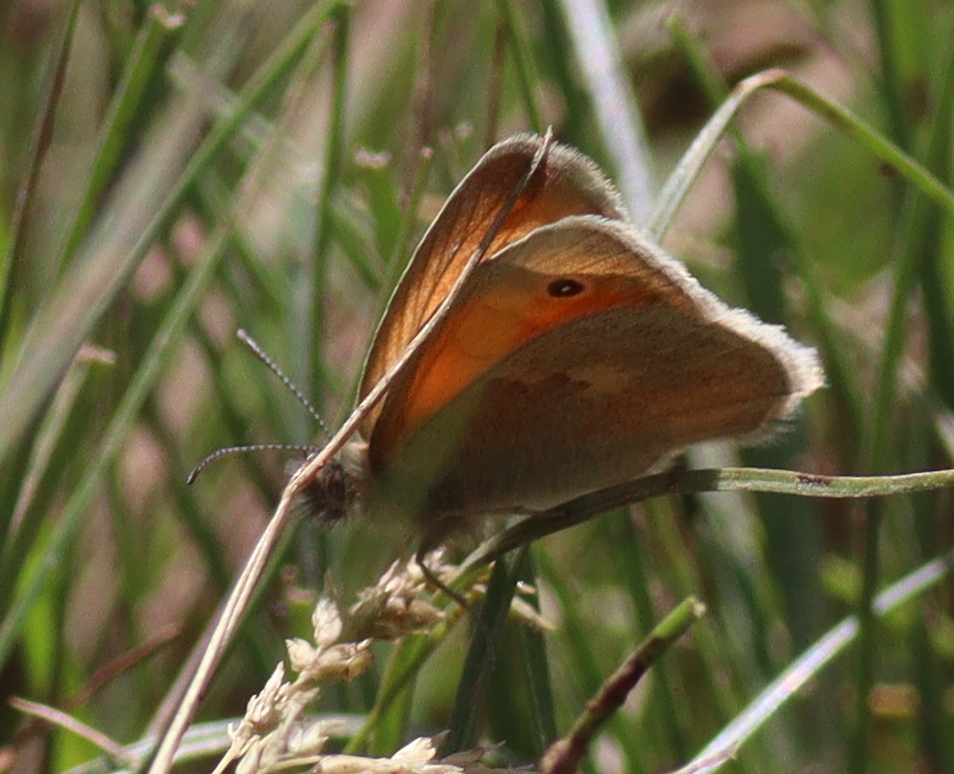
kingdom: Animalia
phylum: Arthropoda
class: Insecta
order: Lepidoptera
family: Nymphalidae
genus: Coenonympha
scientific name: Coenonympha pamphilus
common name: Small heath
